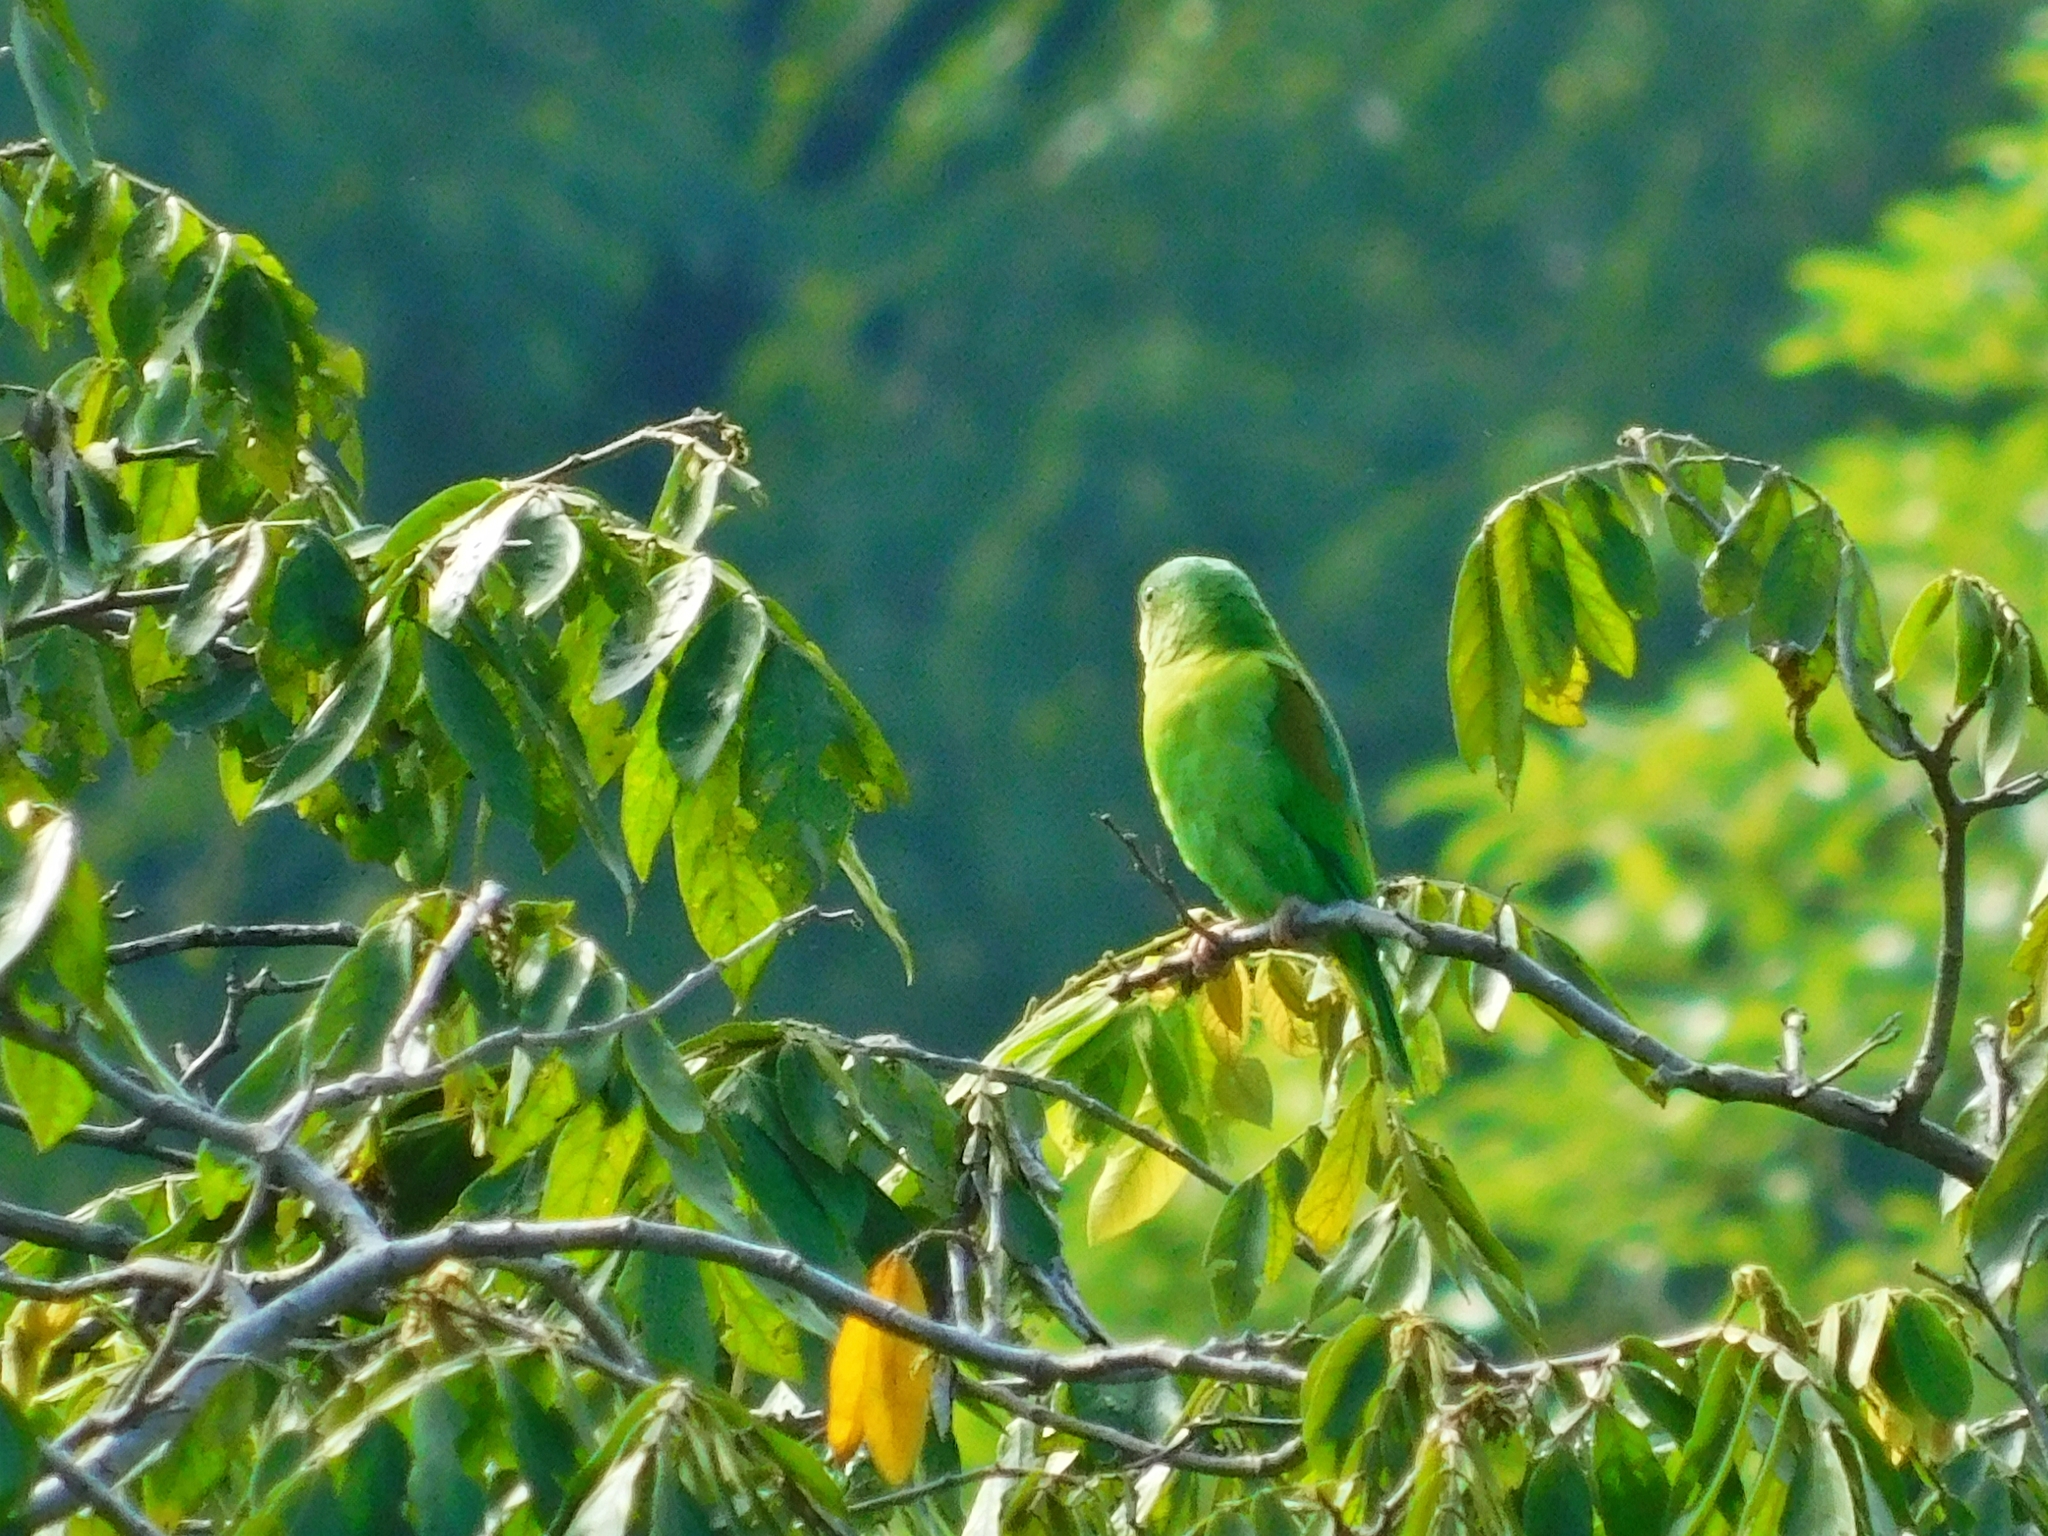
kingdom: Animalia
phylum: Chordata
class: Aves
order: Psittaciformes
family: Psittacidae
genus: Brotogeris
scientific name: Brotogeris jugularis
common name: Orange-chinned parakeet
